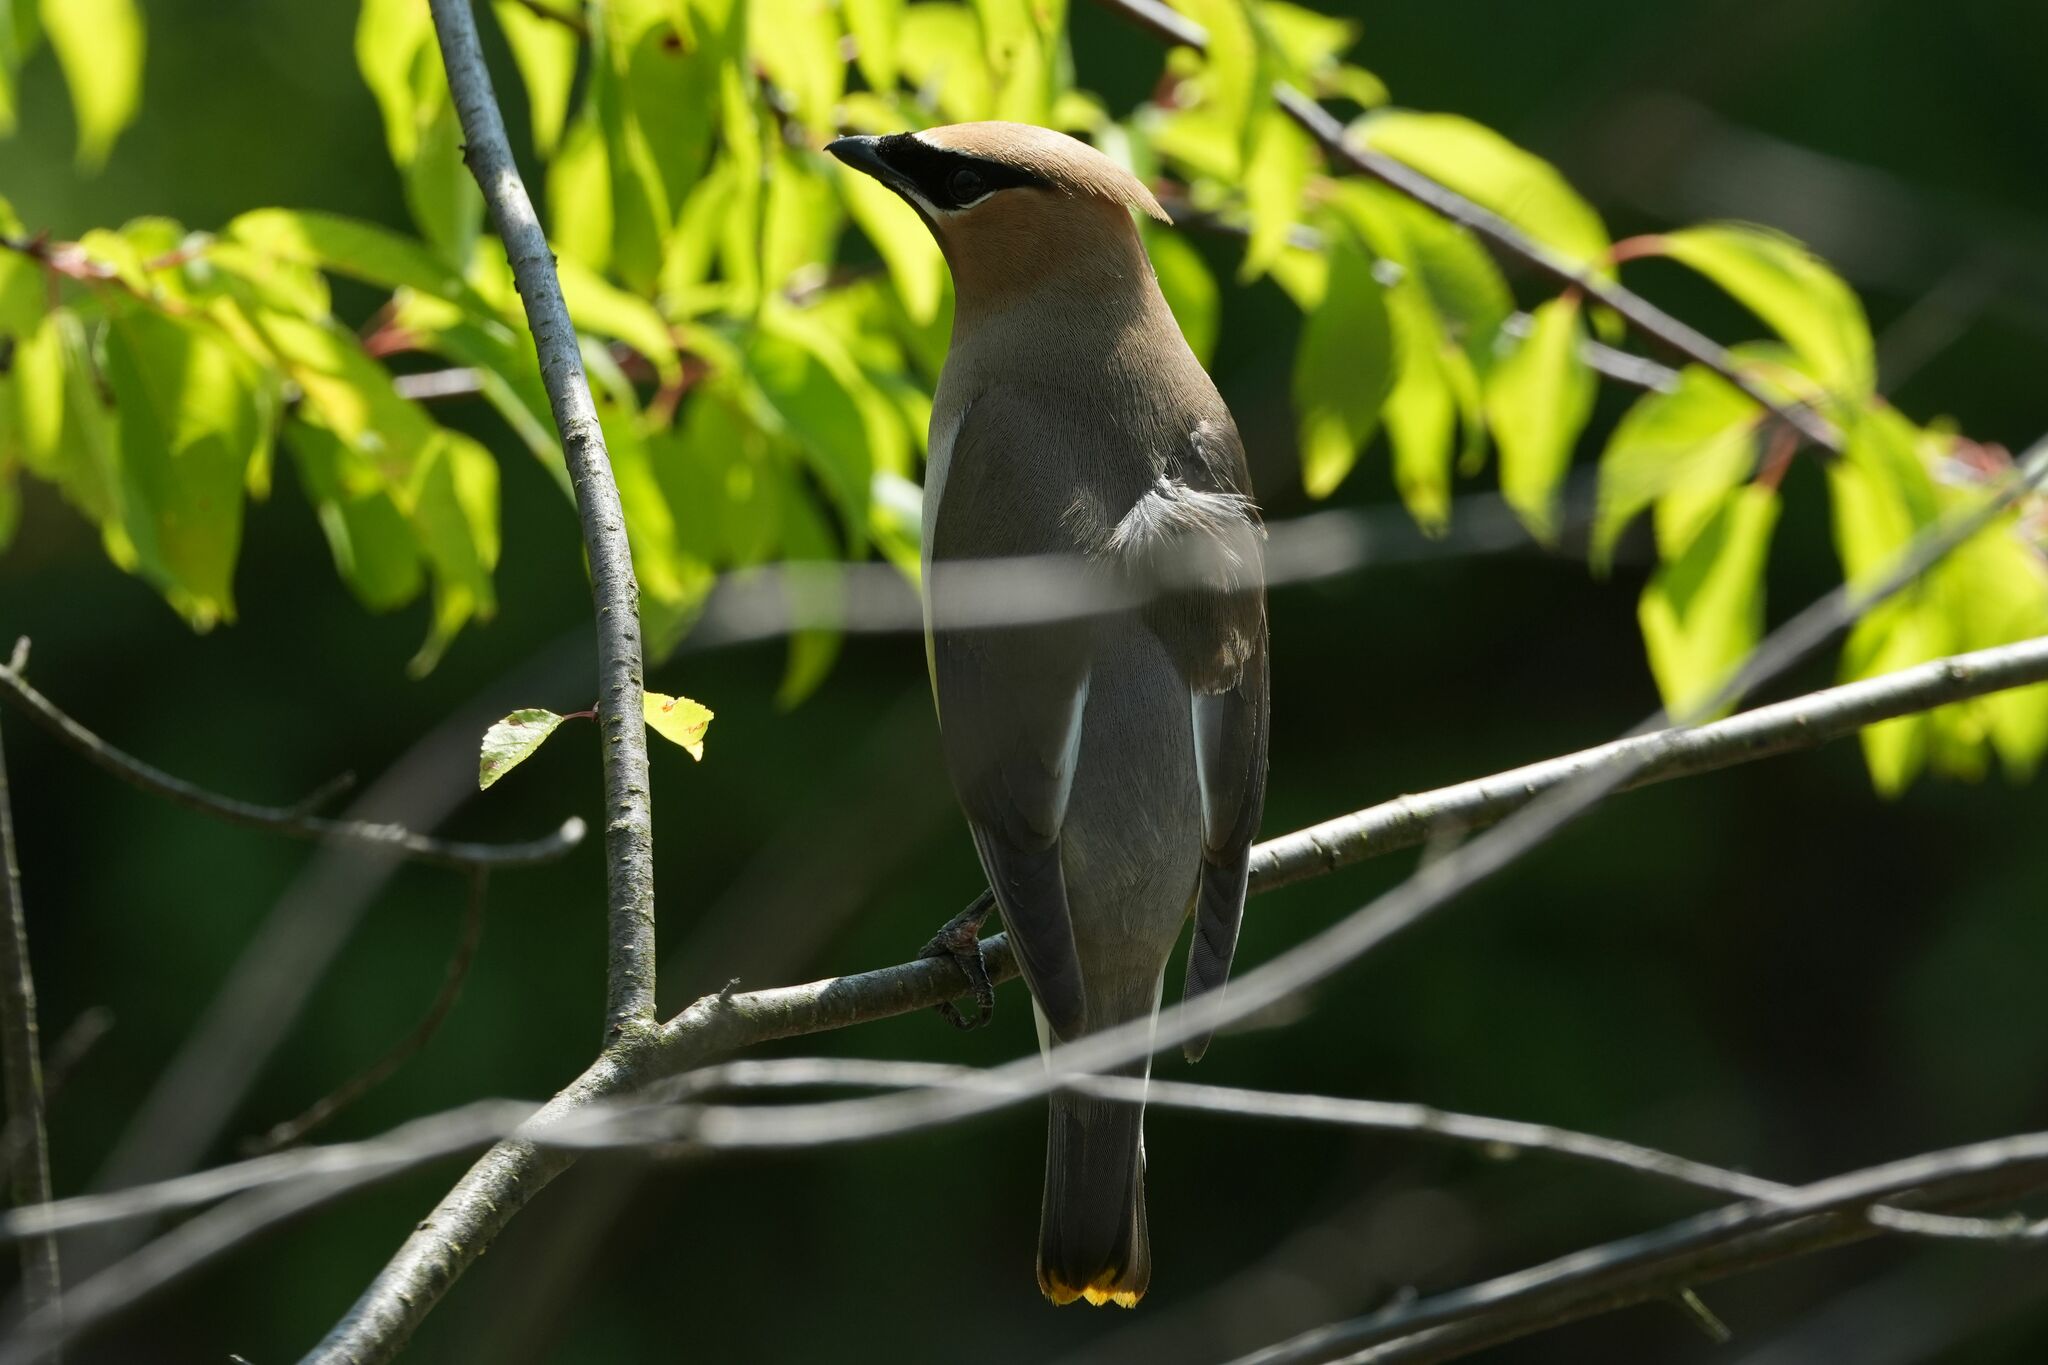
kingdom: Animalia
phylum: Chordata
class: Aves
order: Passeriformes
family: Bombycillidae
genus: Bombycilla
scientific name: Bombycilla cedrorum
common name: Cedar waxwing
